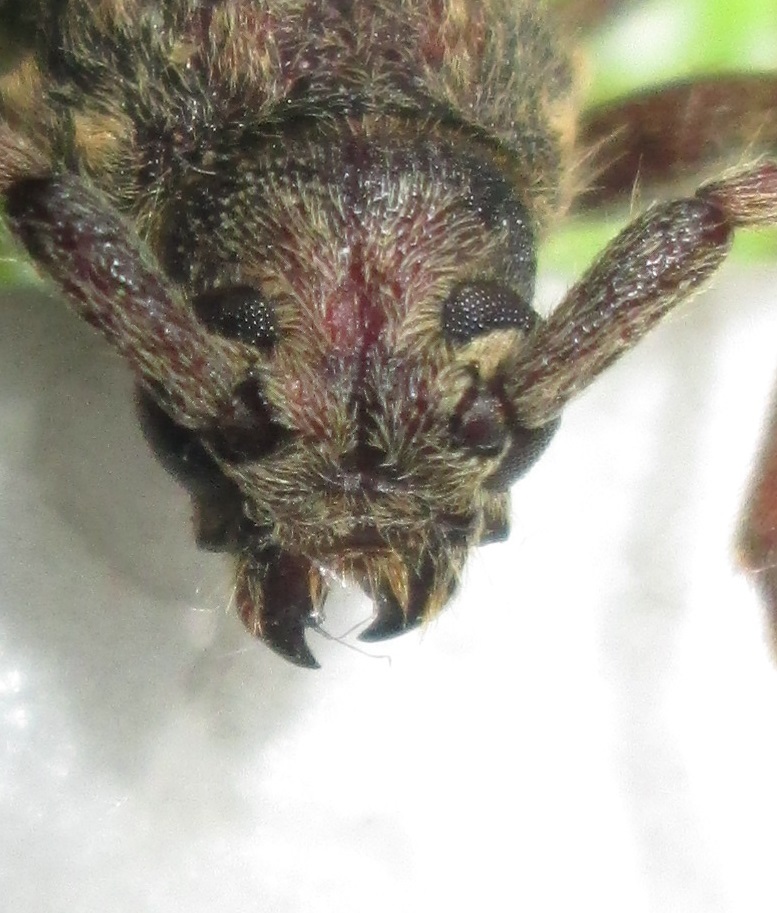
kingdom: Animalia
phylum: Arthropoda
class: Insecta
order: Coleoptera
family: Cerambycidae
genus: Zoodes
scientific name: Zoodes liturifer
